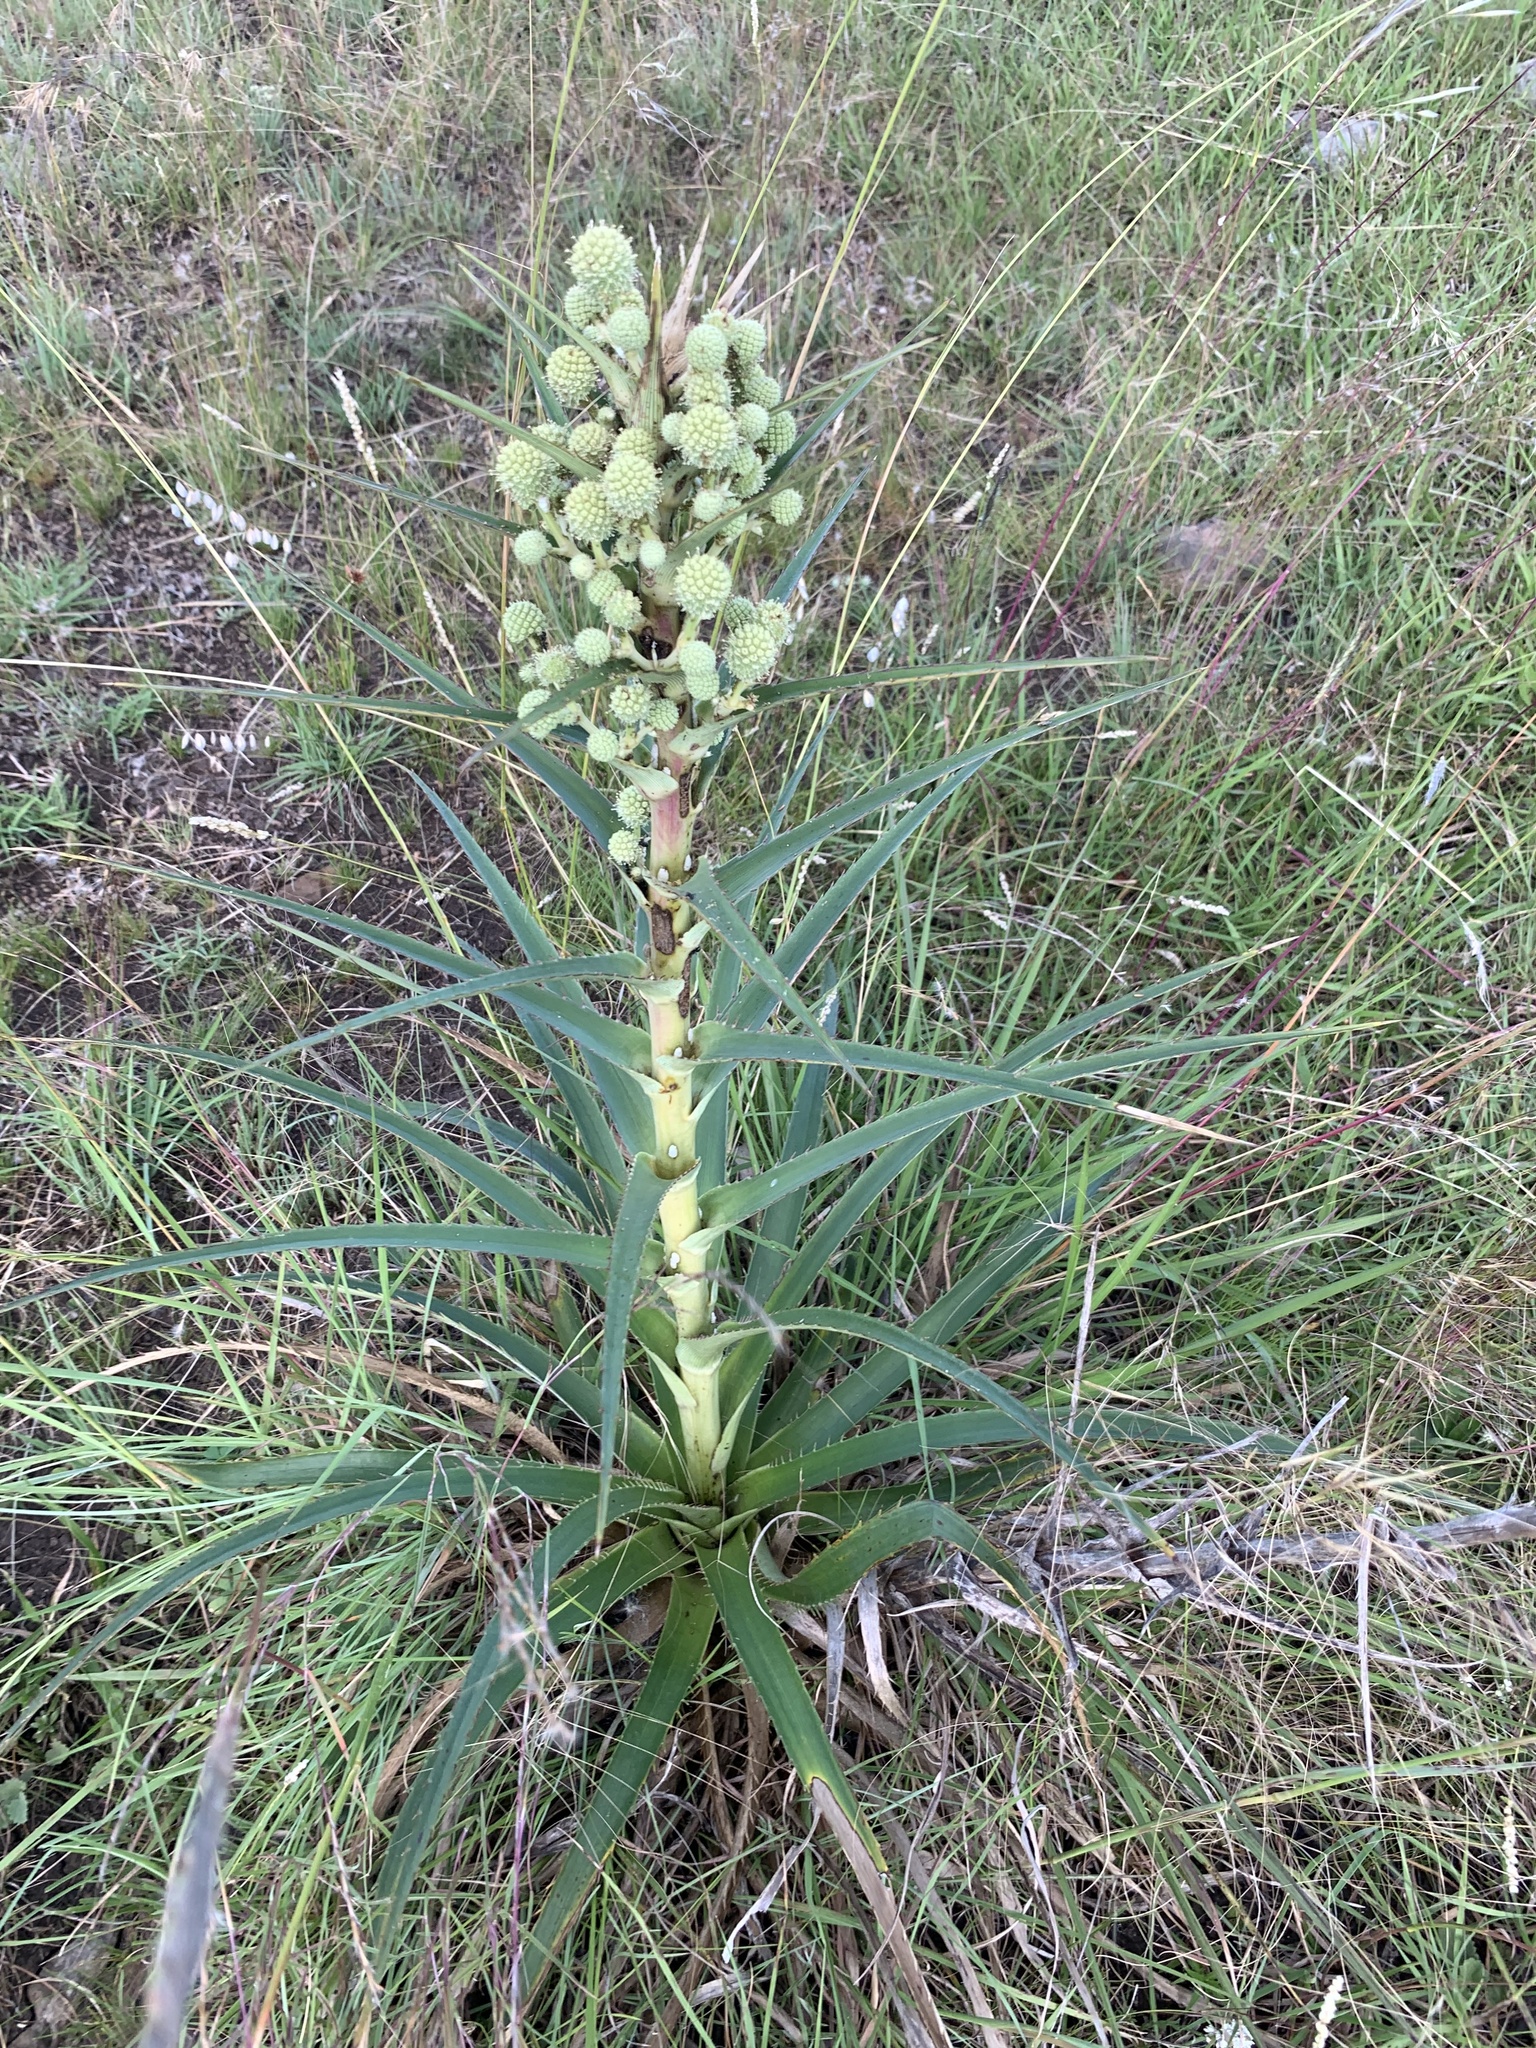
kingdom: Plantae
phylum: Tracheophyta
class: Magnoliopsida
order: Apiales
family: Apiaceae
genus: Eryngium
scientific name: Eryngium horridum
